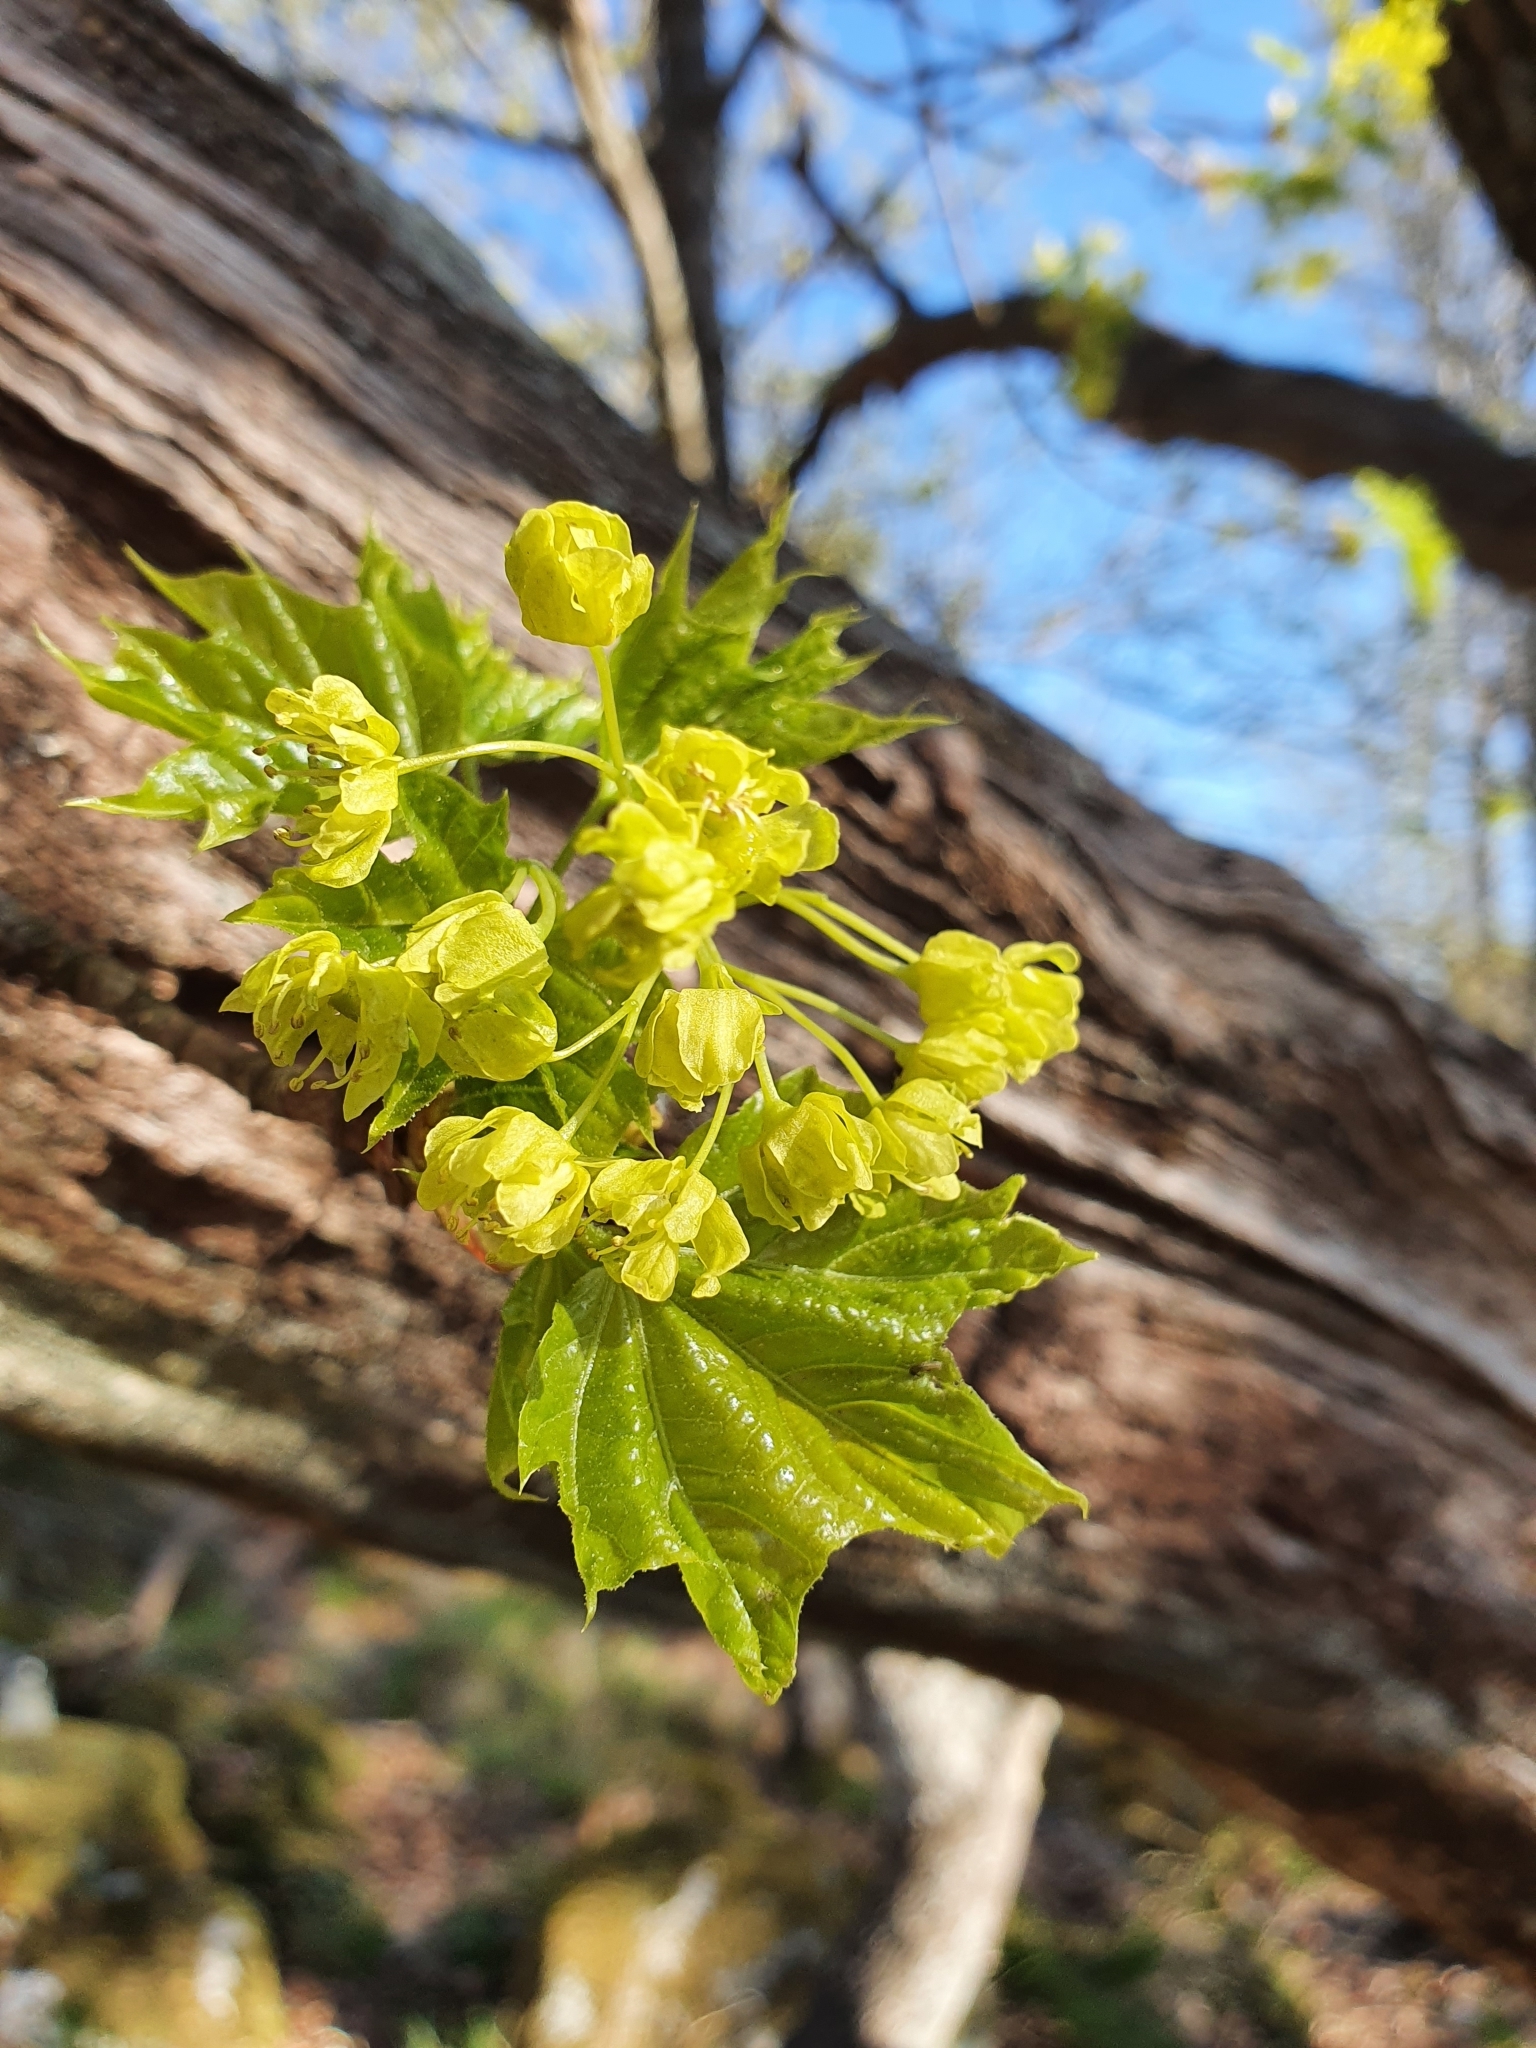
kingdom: Plantae
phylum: Tracheophyta
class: Magnoliopsida
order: Sapindales
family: Sapindaceae
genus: Acer
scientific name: Acer platanoides
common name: Norway maple
